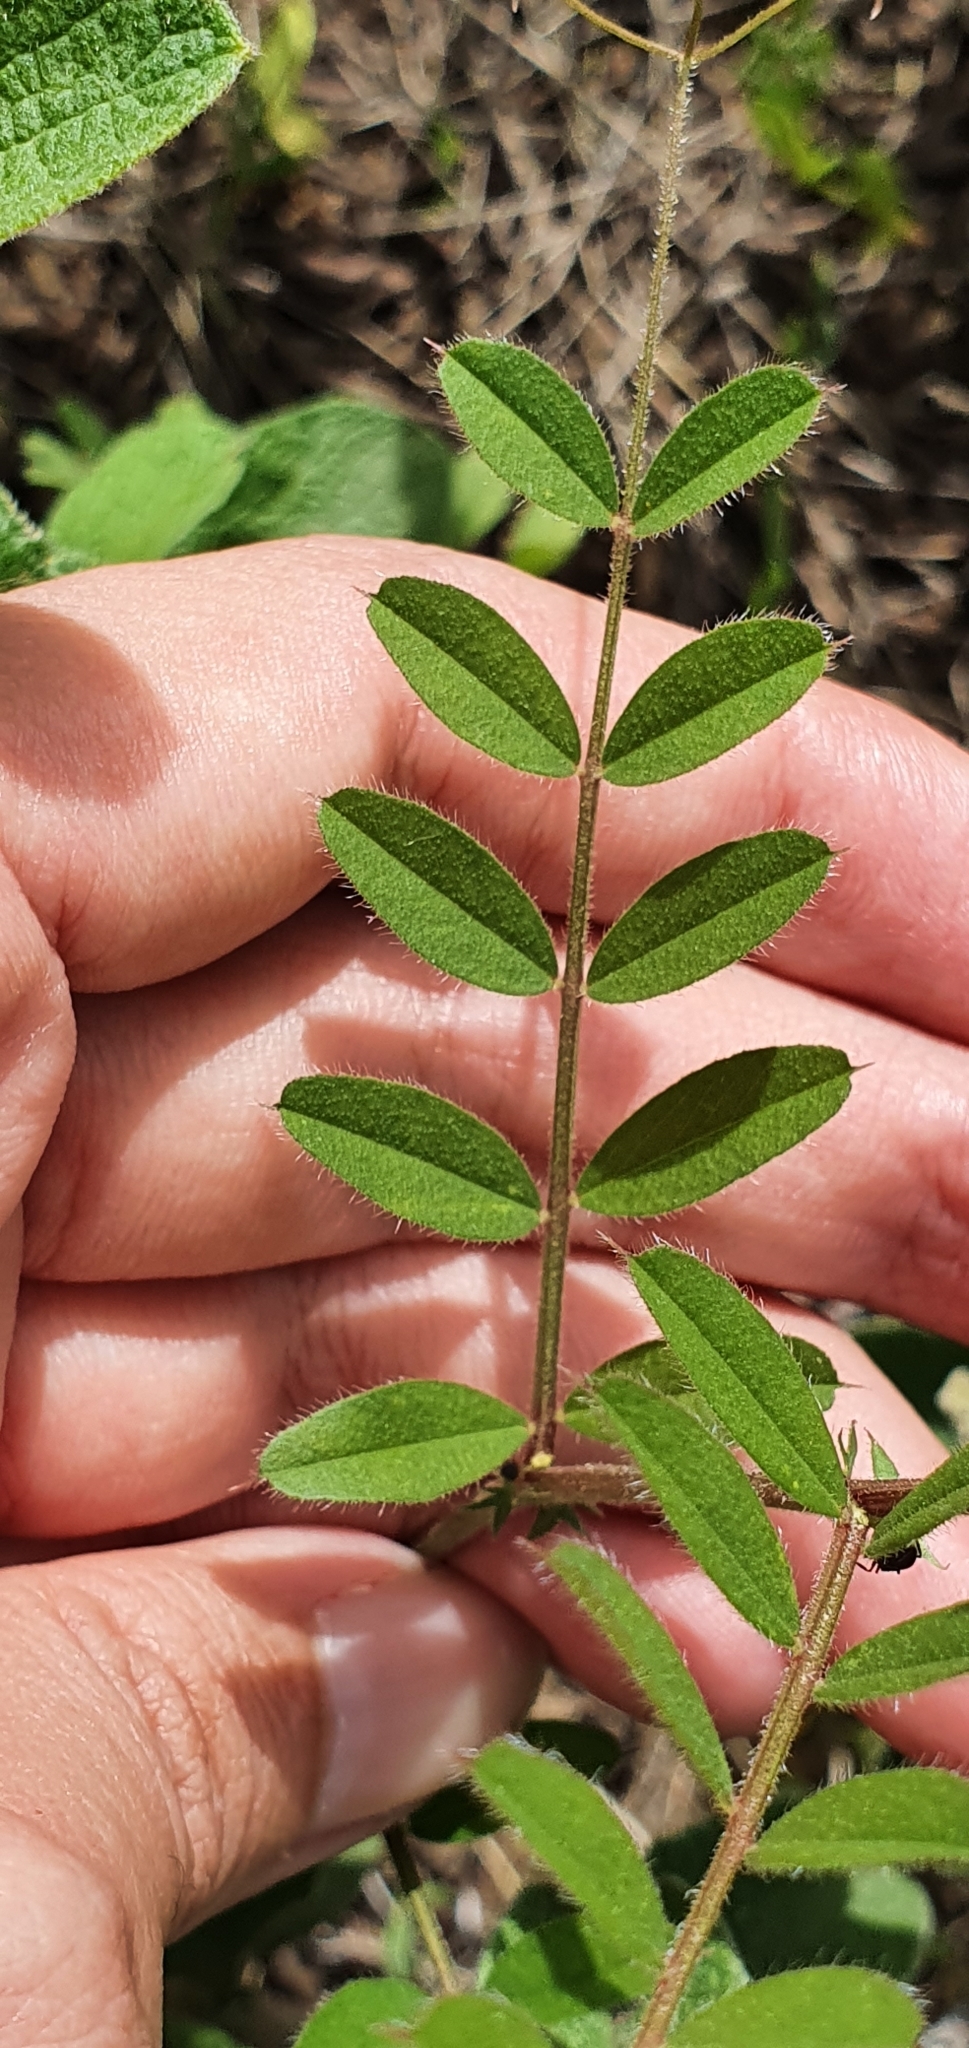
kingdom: Plantae
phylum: Tracheophyta
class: Magnoliopsida
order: Fabales
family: Fabaceae
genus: Vicia
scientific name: Vicia sativa
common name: Garden vetch
